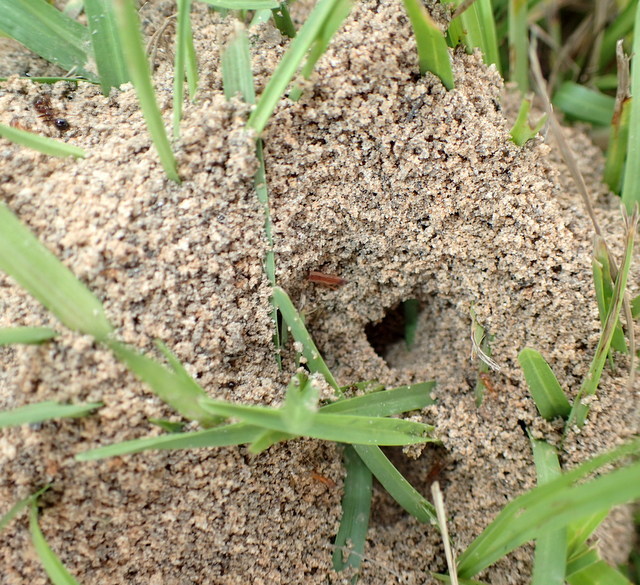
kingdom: Animalia
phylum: Arthropoda
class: Insecta
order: Hymenoptera
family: Formicidae
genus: Dorymyrmex
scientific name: Dorymyrmex bureni
